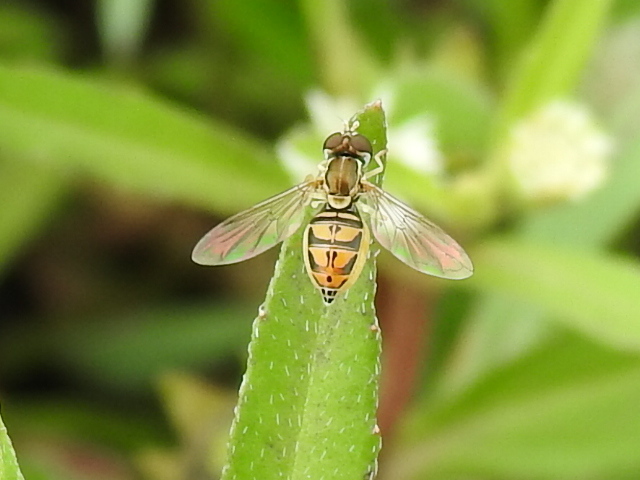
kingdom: Animalia
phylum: Arthropoda
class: Insecta
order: Diptera
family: Syrphidae
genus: Toxomerus
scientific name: Toxomerus marginatus
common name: Syrphid fly
